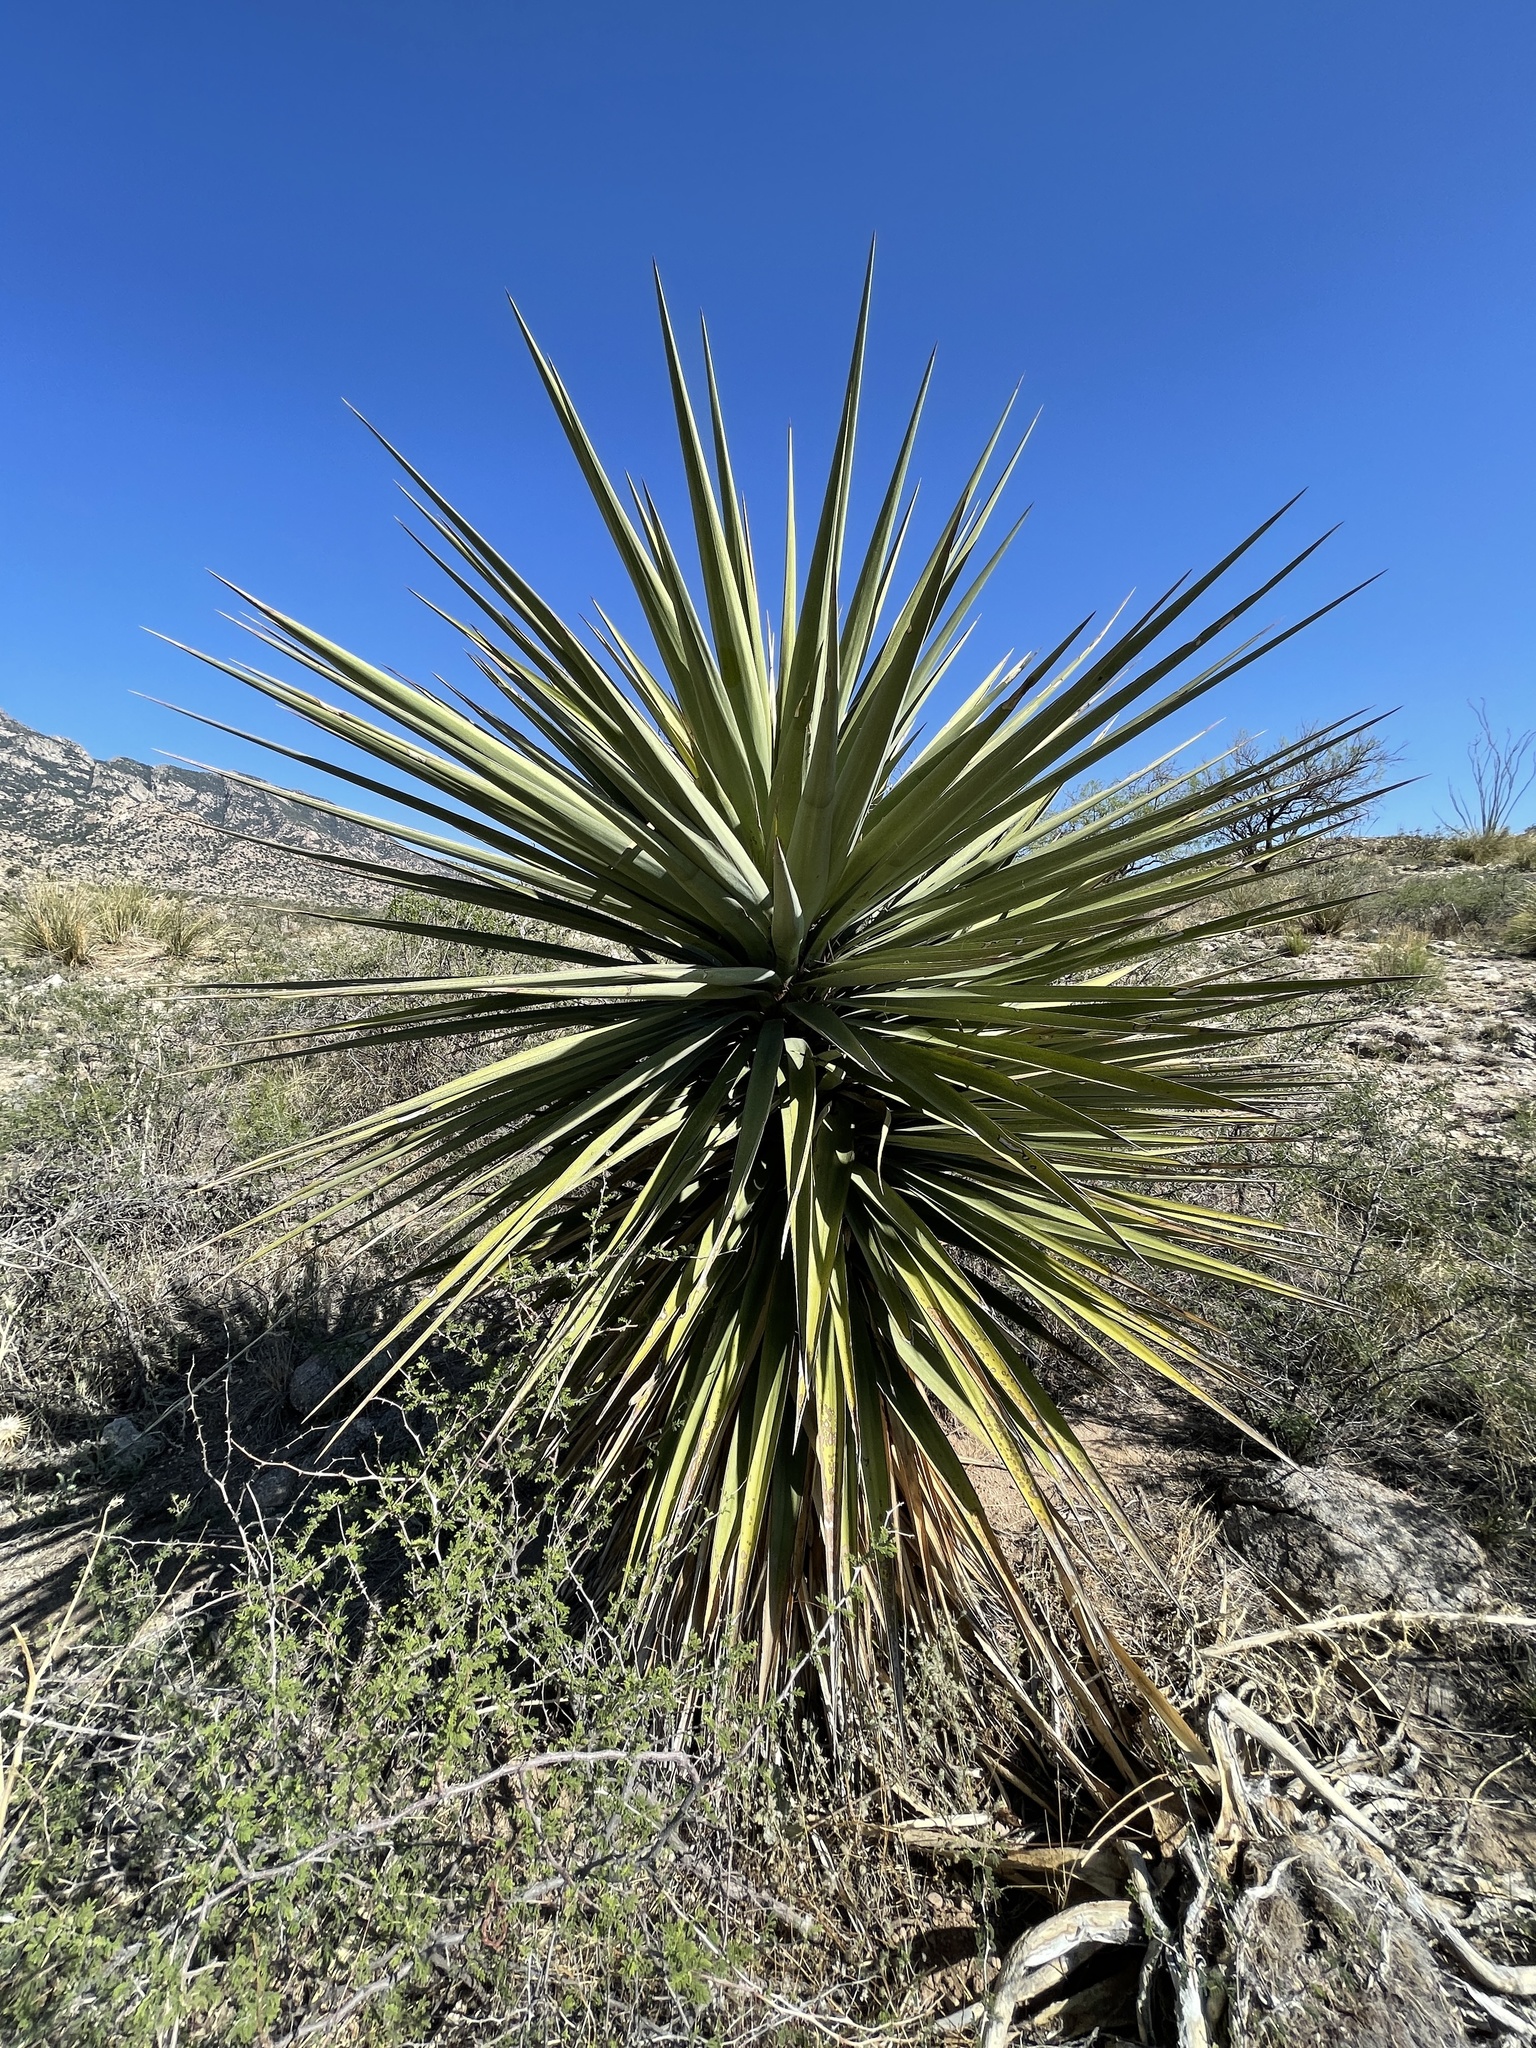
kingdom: Plantae
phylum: Tracheophyta
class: Liliopsida
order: Asparagales
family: Asparagaceae
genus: Yucca
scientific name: Yucca madrensis
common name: Hoary yucca
